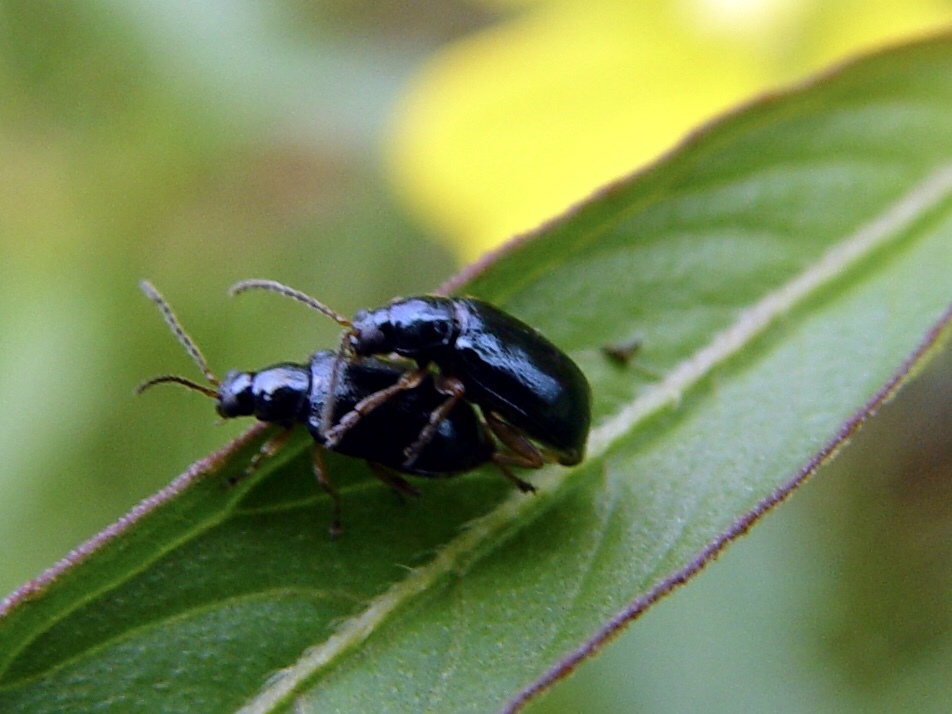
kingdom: Animalia
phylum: Arthropoda
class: Insecta
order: Coleoptera
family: Chrysomelidae
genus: Lysathia
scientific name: Lysathia ludoviciana
